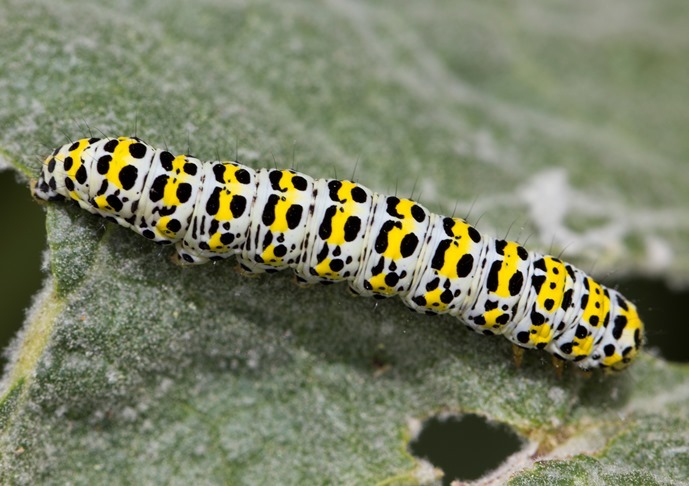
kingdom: Animalia
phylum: Arthropoda
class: Insecta
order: Lepidoptera
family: Noctuidae
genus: Cucullia
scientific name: Cucullia verbasci
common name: Mullein
